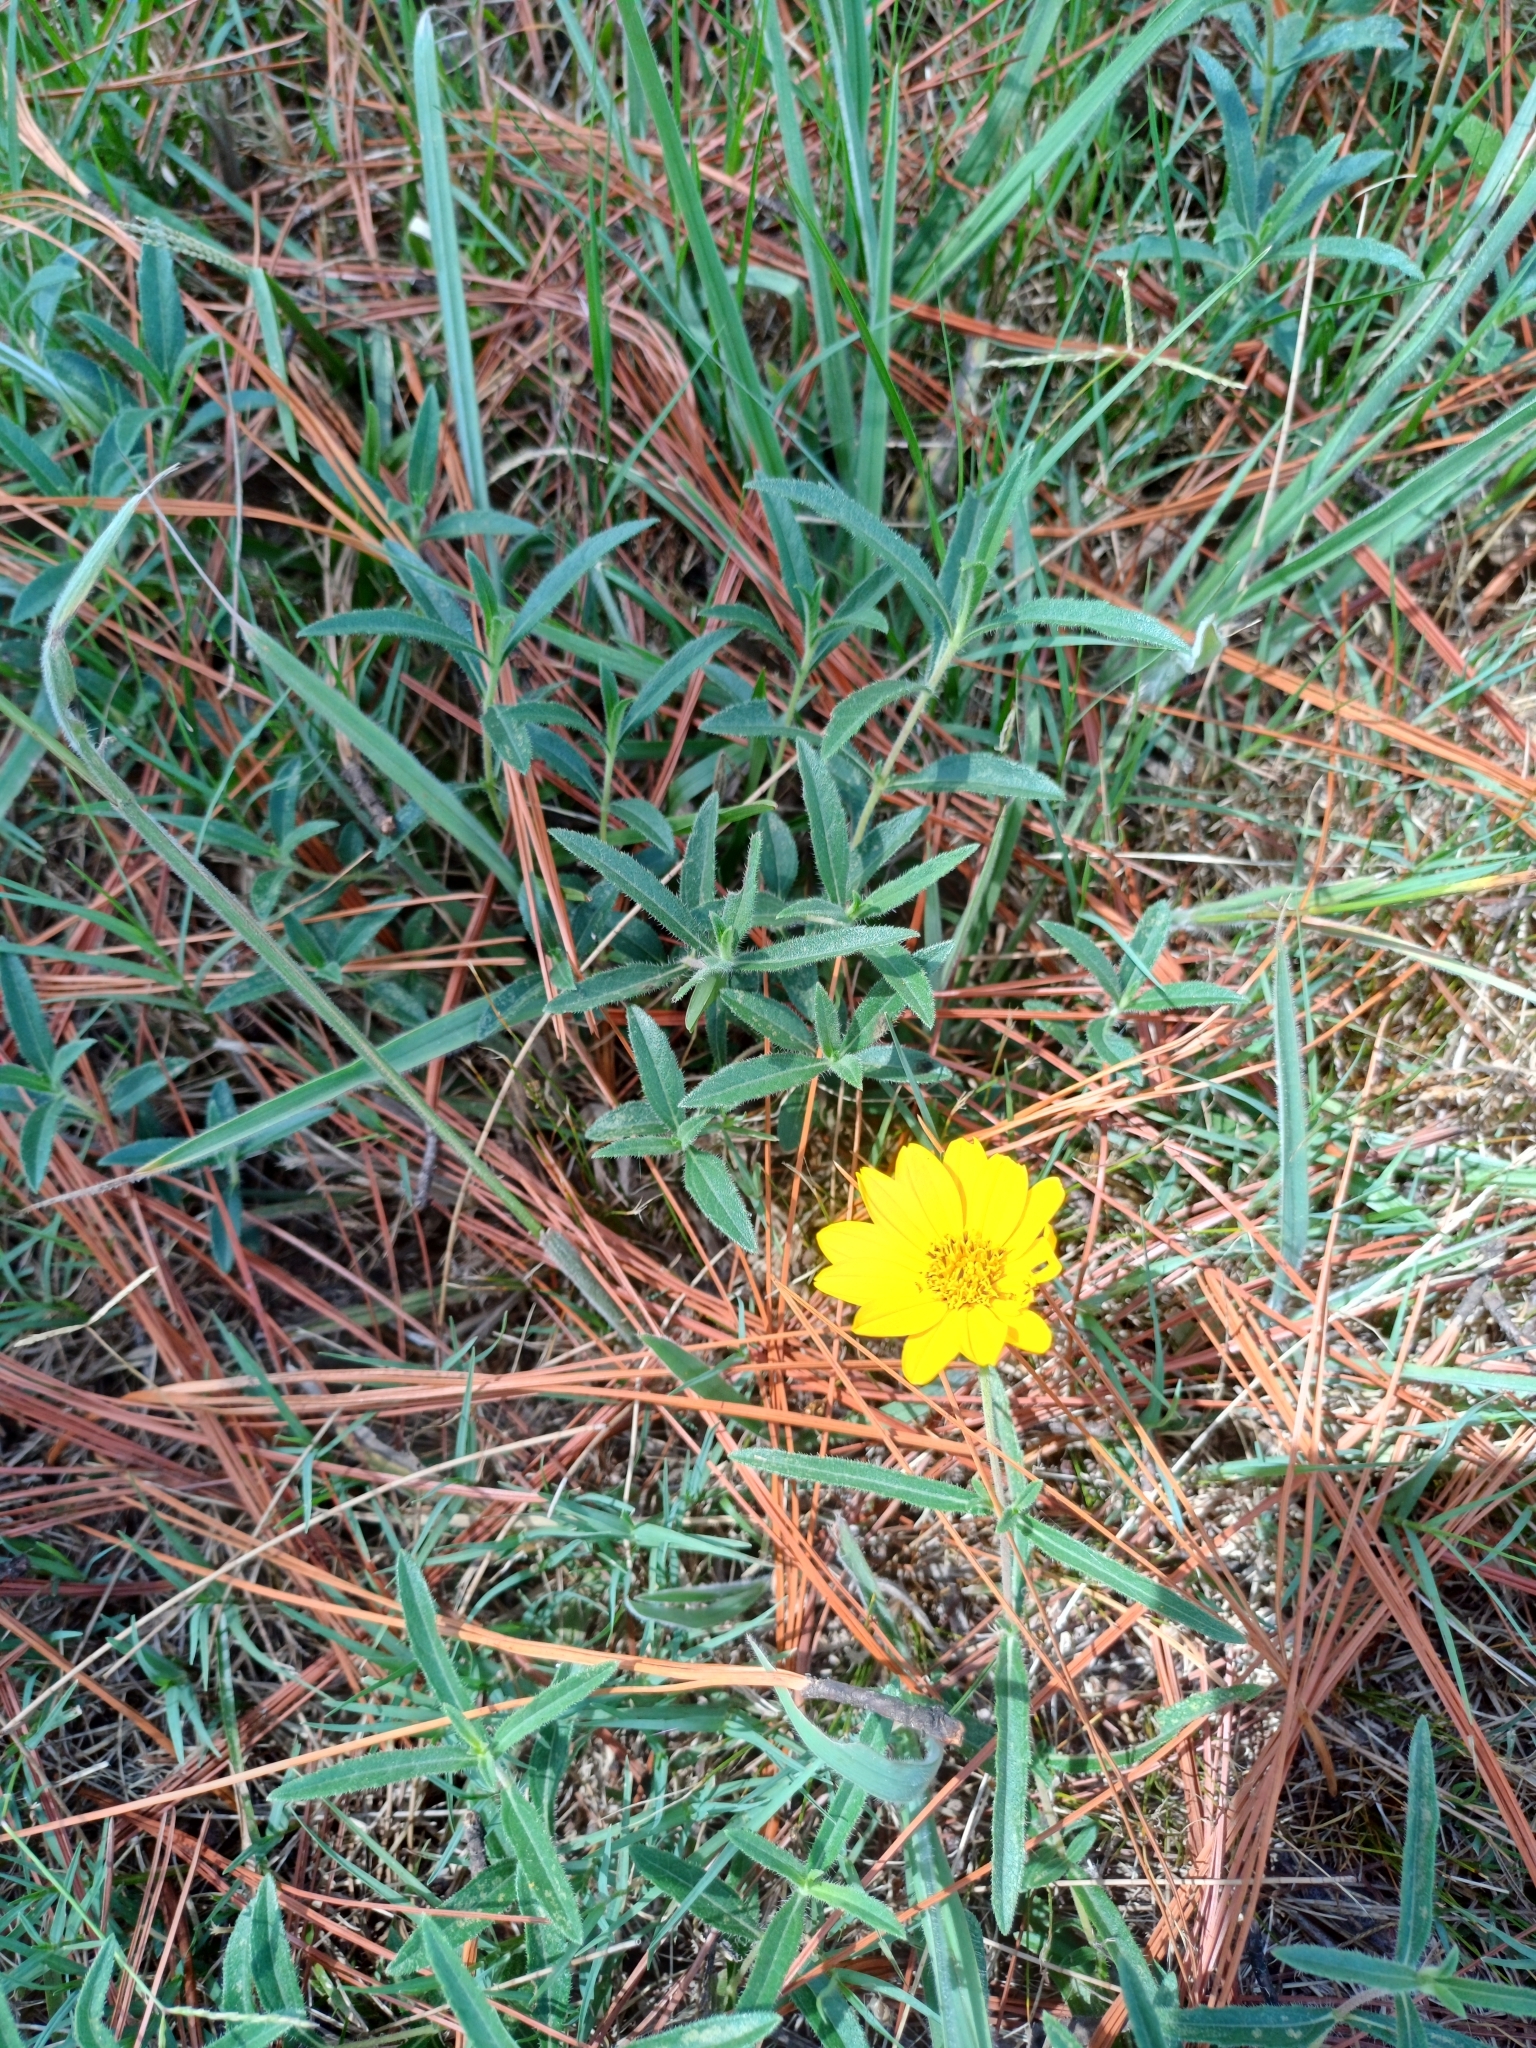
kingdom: Plantae
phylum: Tracheophyta
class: Magnoliopsida
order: Asterales
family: Asteraceae
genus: Wedelia
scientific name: Wedelia montevidensis
